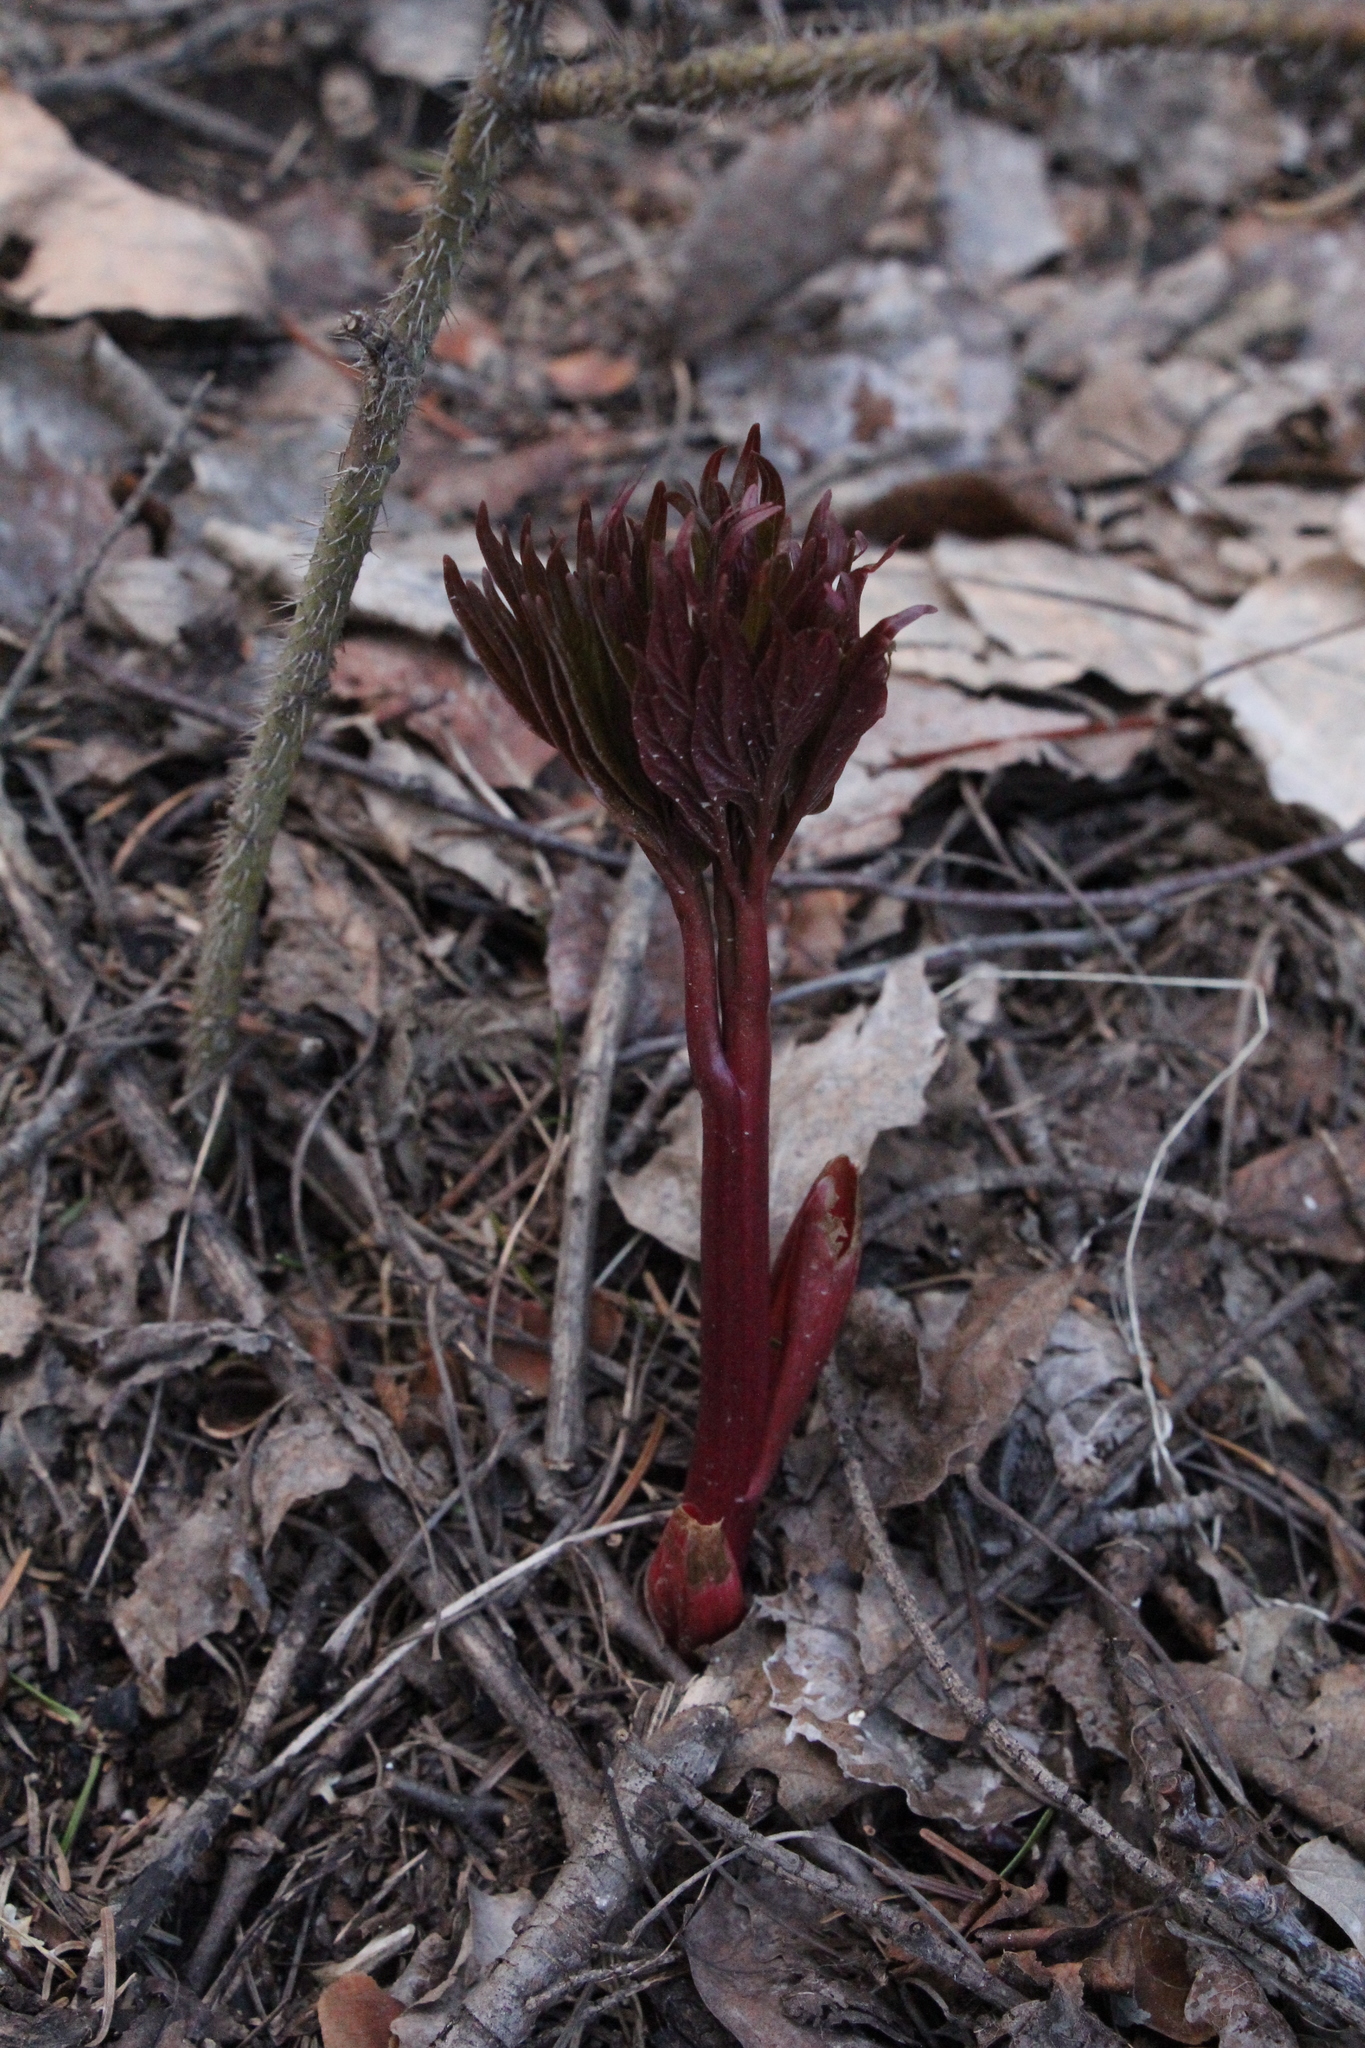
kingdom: Plantae
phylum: Tracheophyta
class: Magnoliopsida
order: Saxifragales
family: Paeoniaceae
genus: Paeonia
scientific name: Paeonia anomala
